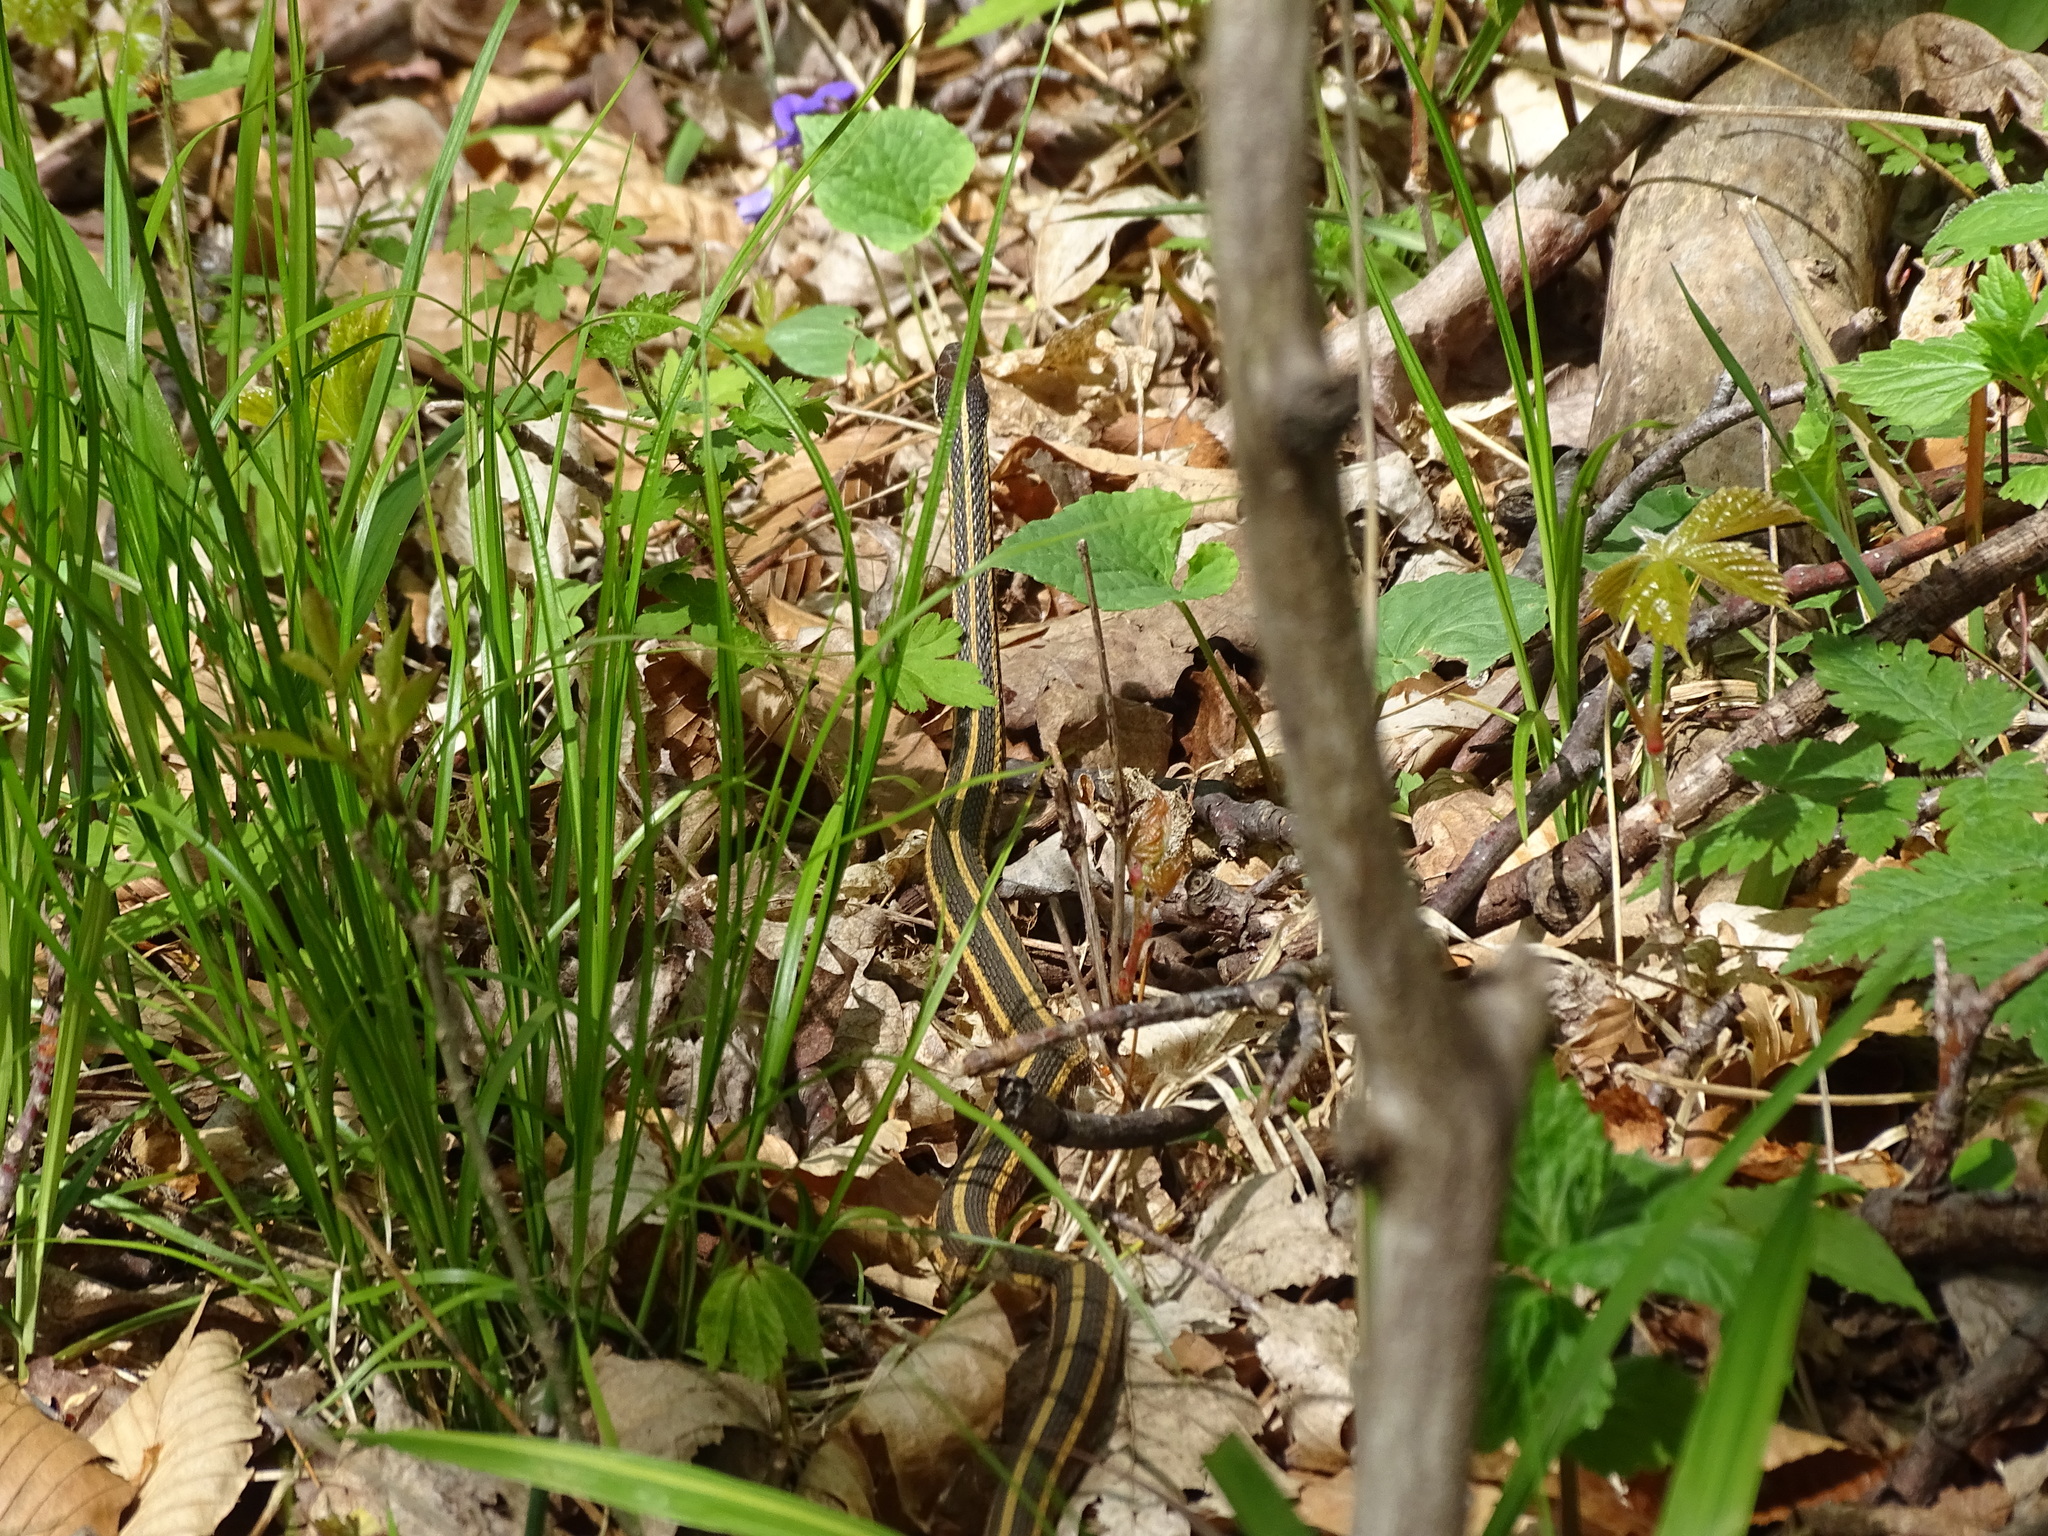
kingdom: Animalia
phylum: Chordata
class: Squamata
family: Colubridae
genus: Thamnophis
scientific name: Thamnophis saurita
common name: Eastern ribbonsnake
